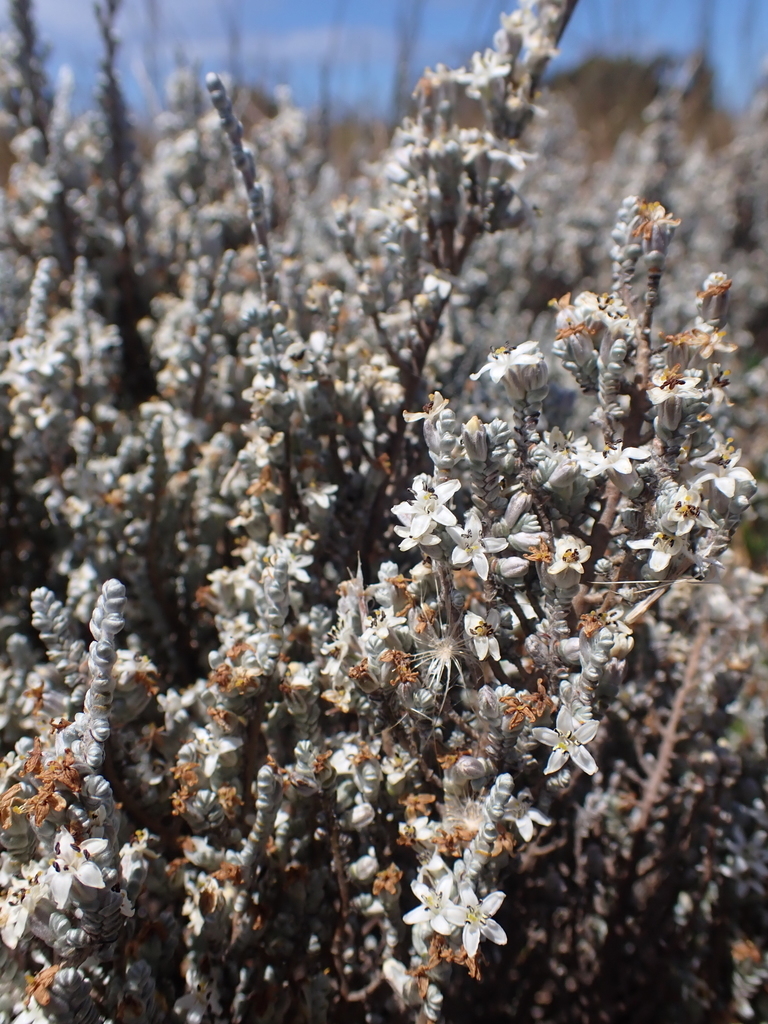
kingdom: Plantae
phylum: Tracheophyta
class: Magnoliopsida
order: Solanales
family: Convolvulaceae
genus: Wilsonia
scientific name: Wilsonia humilis
